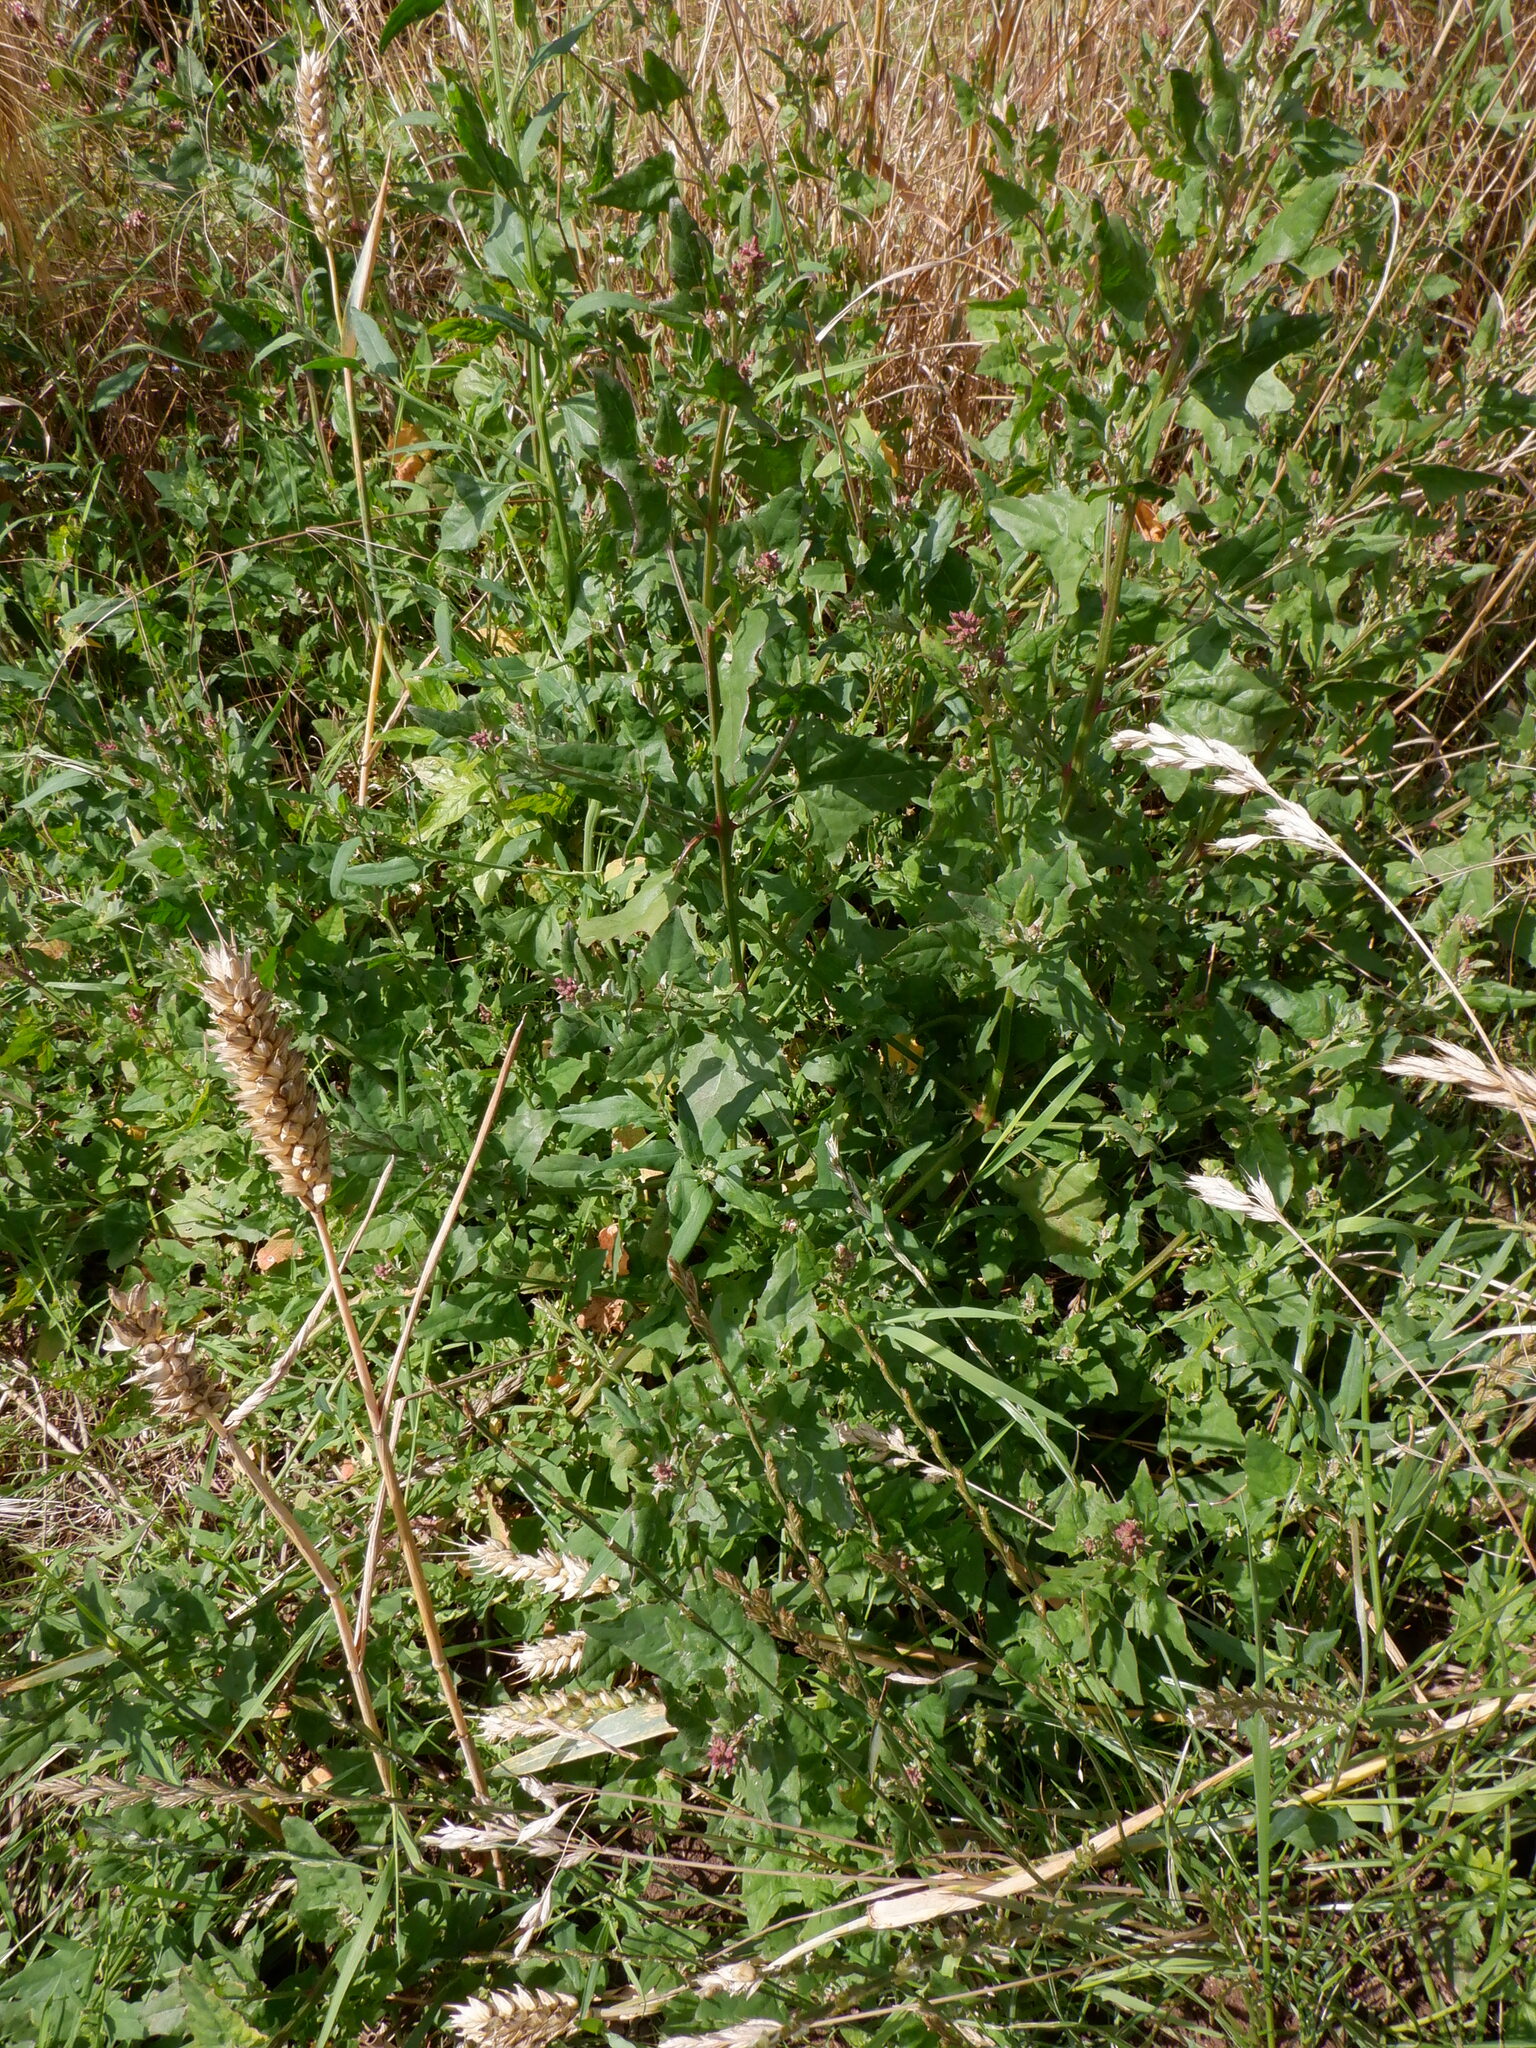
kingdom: Plantae
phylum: Tracheophyta
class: Magnoliopsida
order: Caryophyllales
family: Amaranthaceae
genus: Atriplex
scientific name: Atriplex prostrata
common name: Spear-leaved orache
